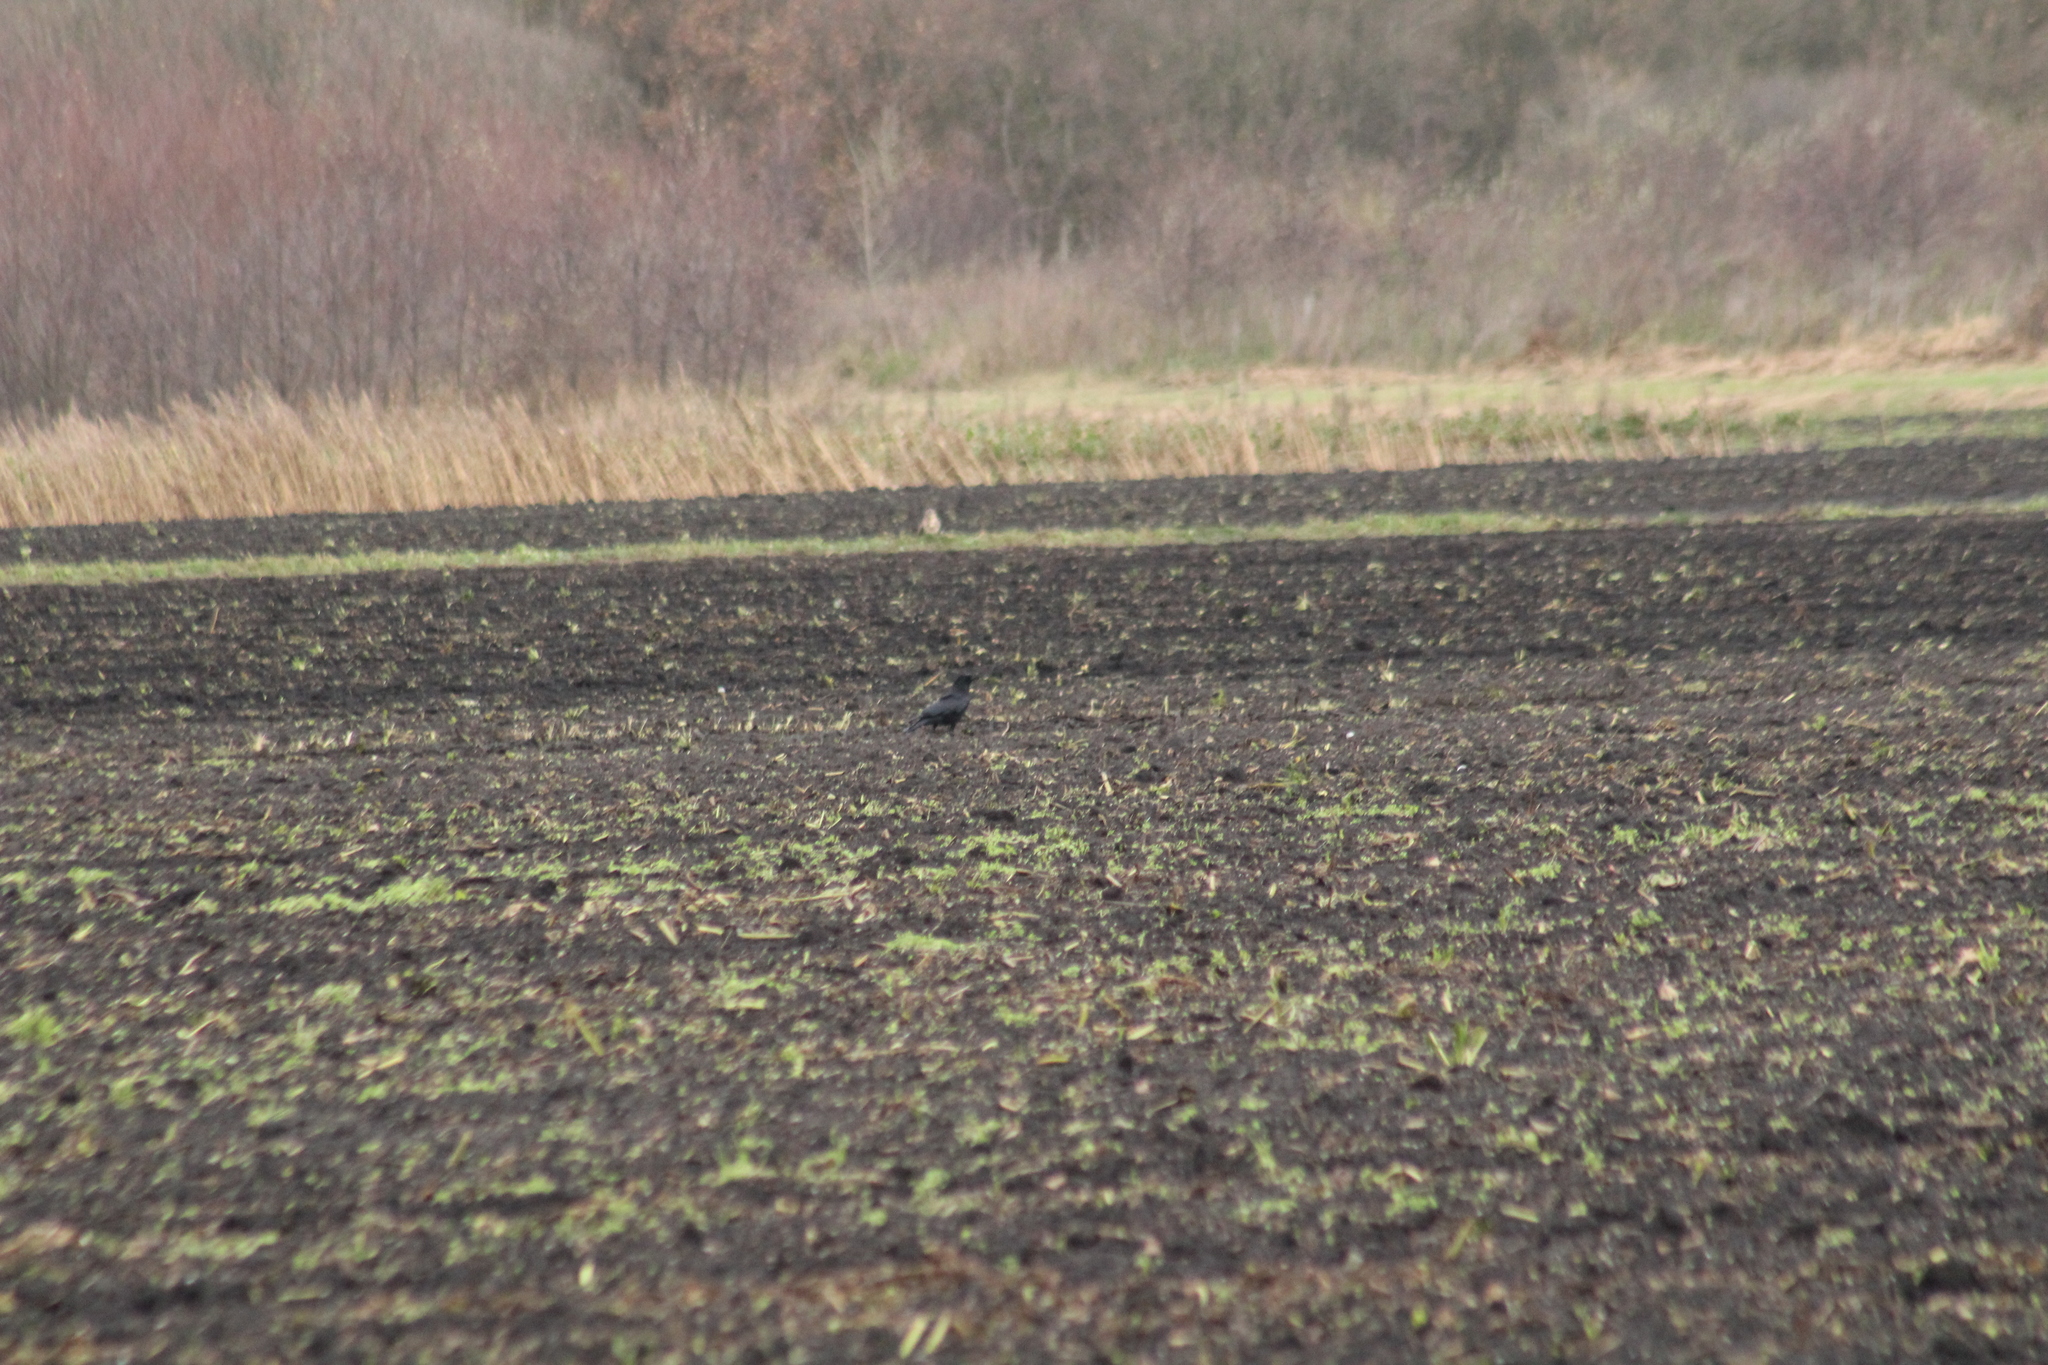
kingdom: Animalia
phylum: Chordata
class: Aves
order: Passeriformes
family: Corvidae
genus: Corvus
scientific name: Corvus corone
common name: Carrion crow
